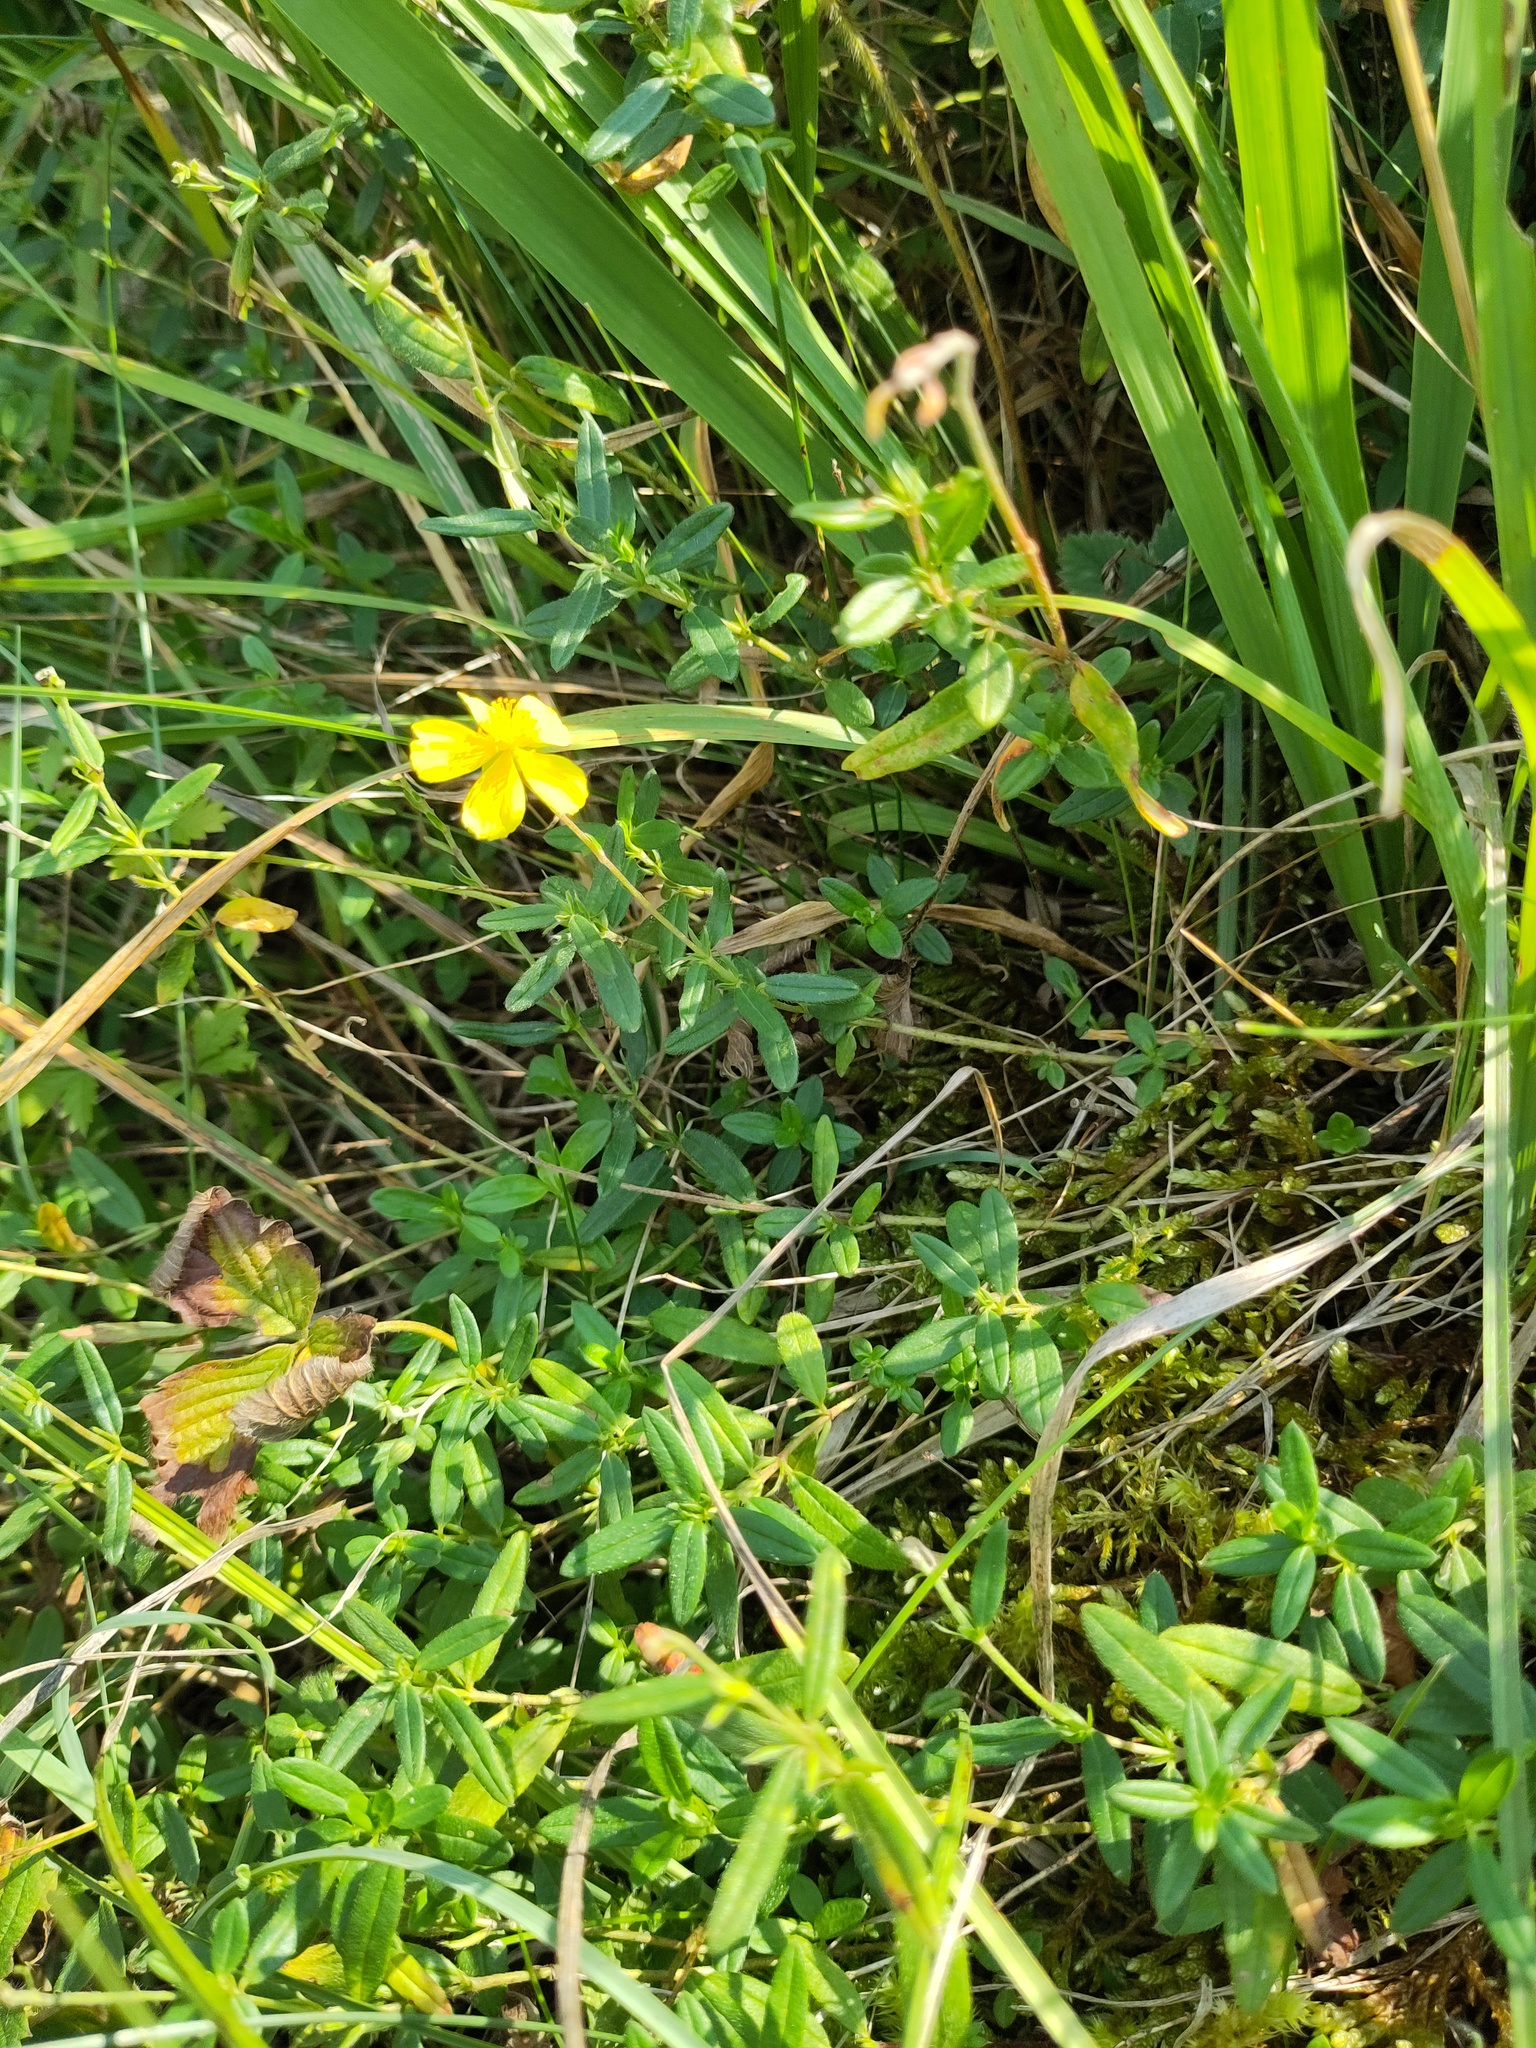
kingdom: Plantae
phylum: Tracheophyta
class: Magnoliopsida
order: Malvales
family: Cistaceae
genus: Helianthemum
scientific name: Helianthemum nummularium
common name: Common rock-rose
